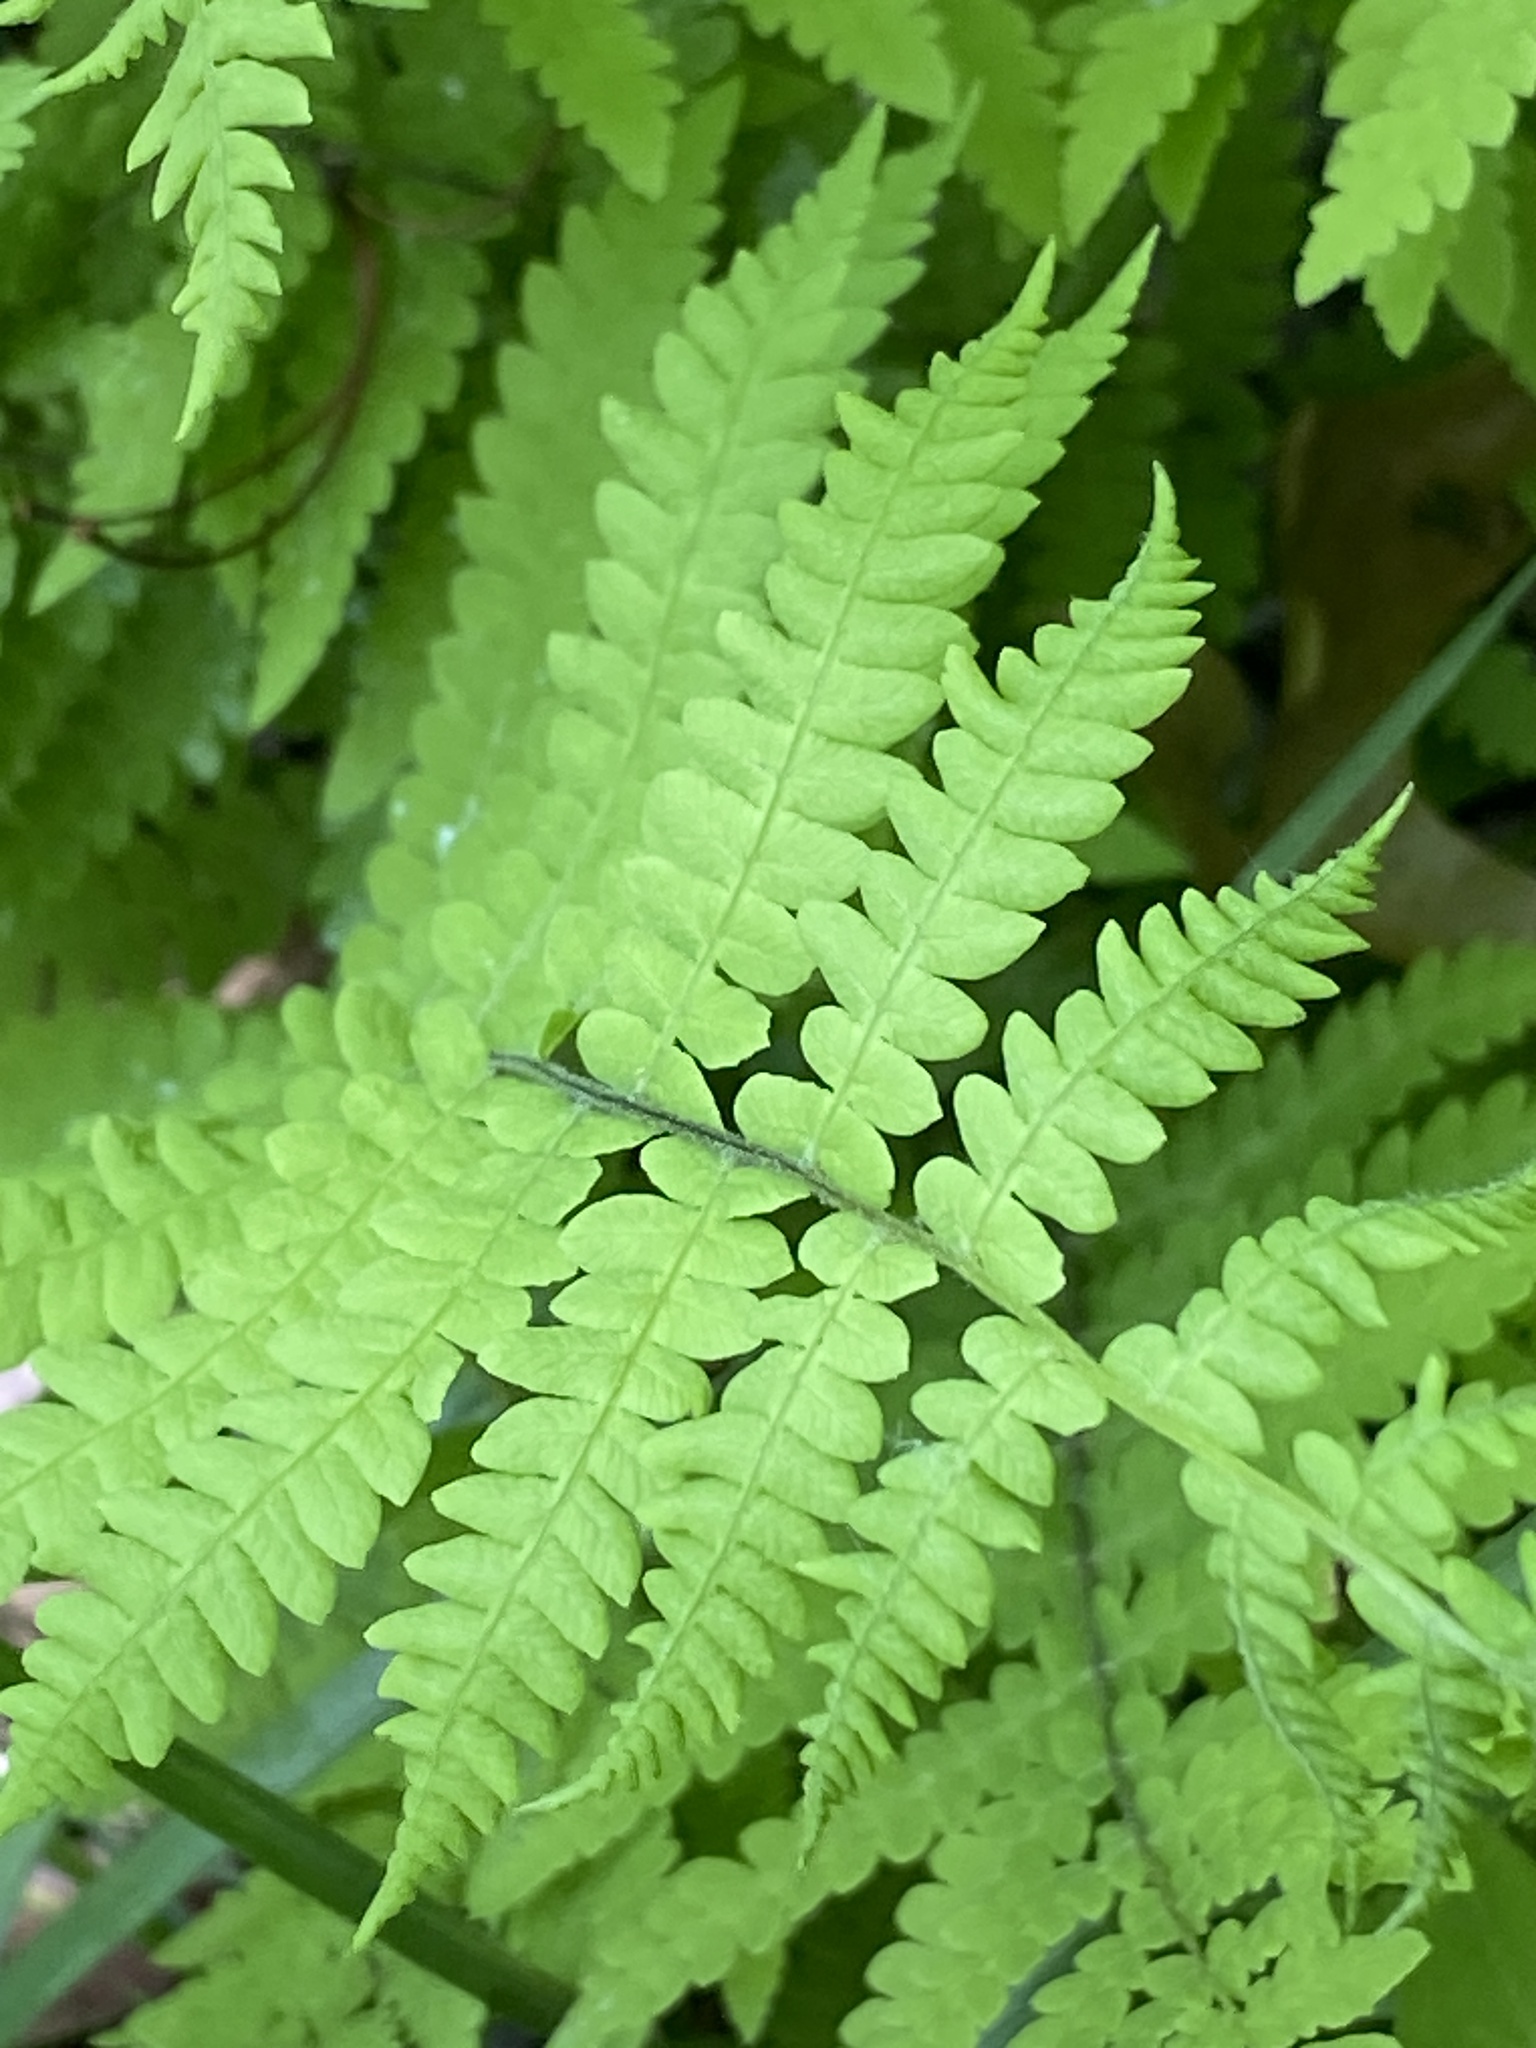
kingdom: Plantae
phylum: Tracheophyta
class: Polypodiopsida
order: Polypodiales
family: Thelypteridaceae
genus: Thelypteris
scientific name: Thelypteris palustris
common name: Marsh fern
